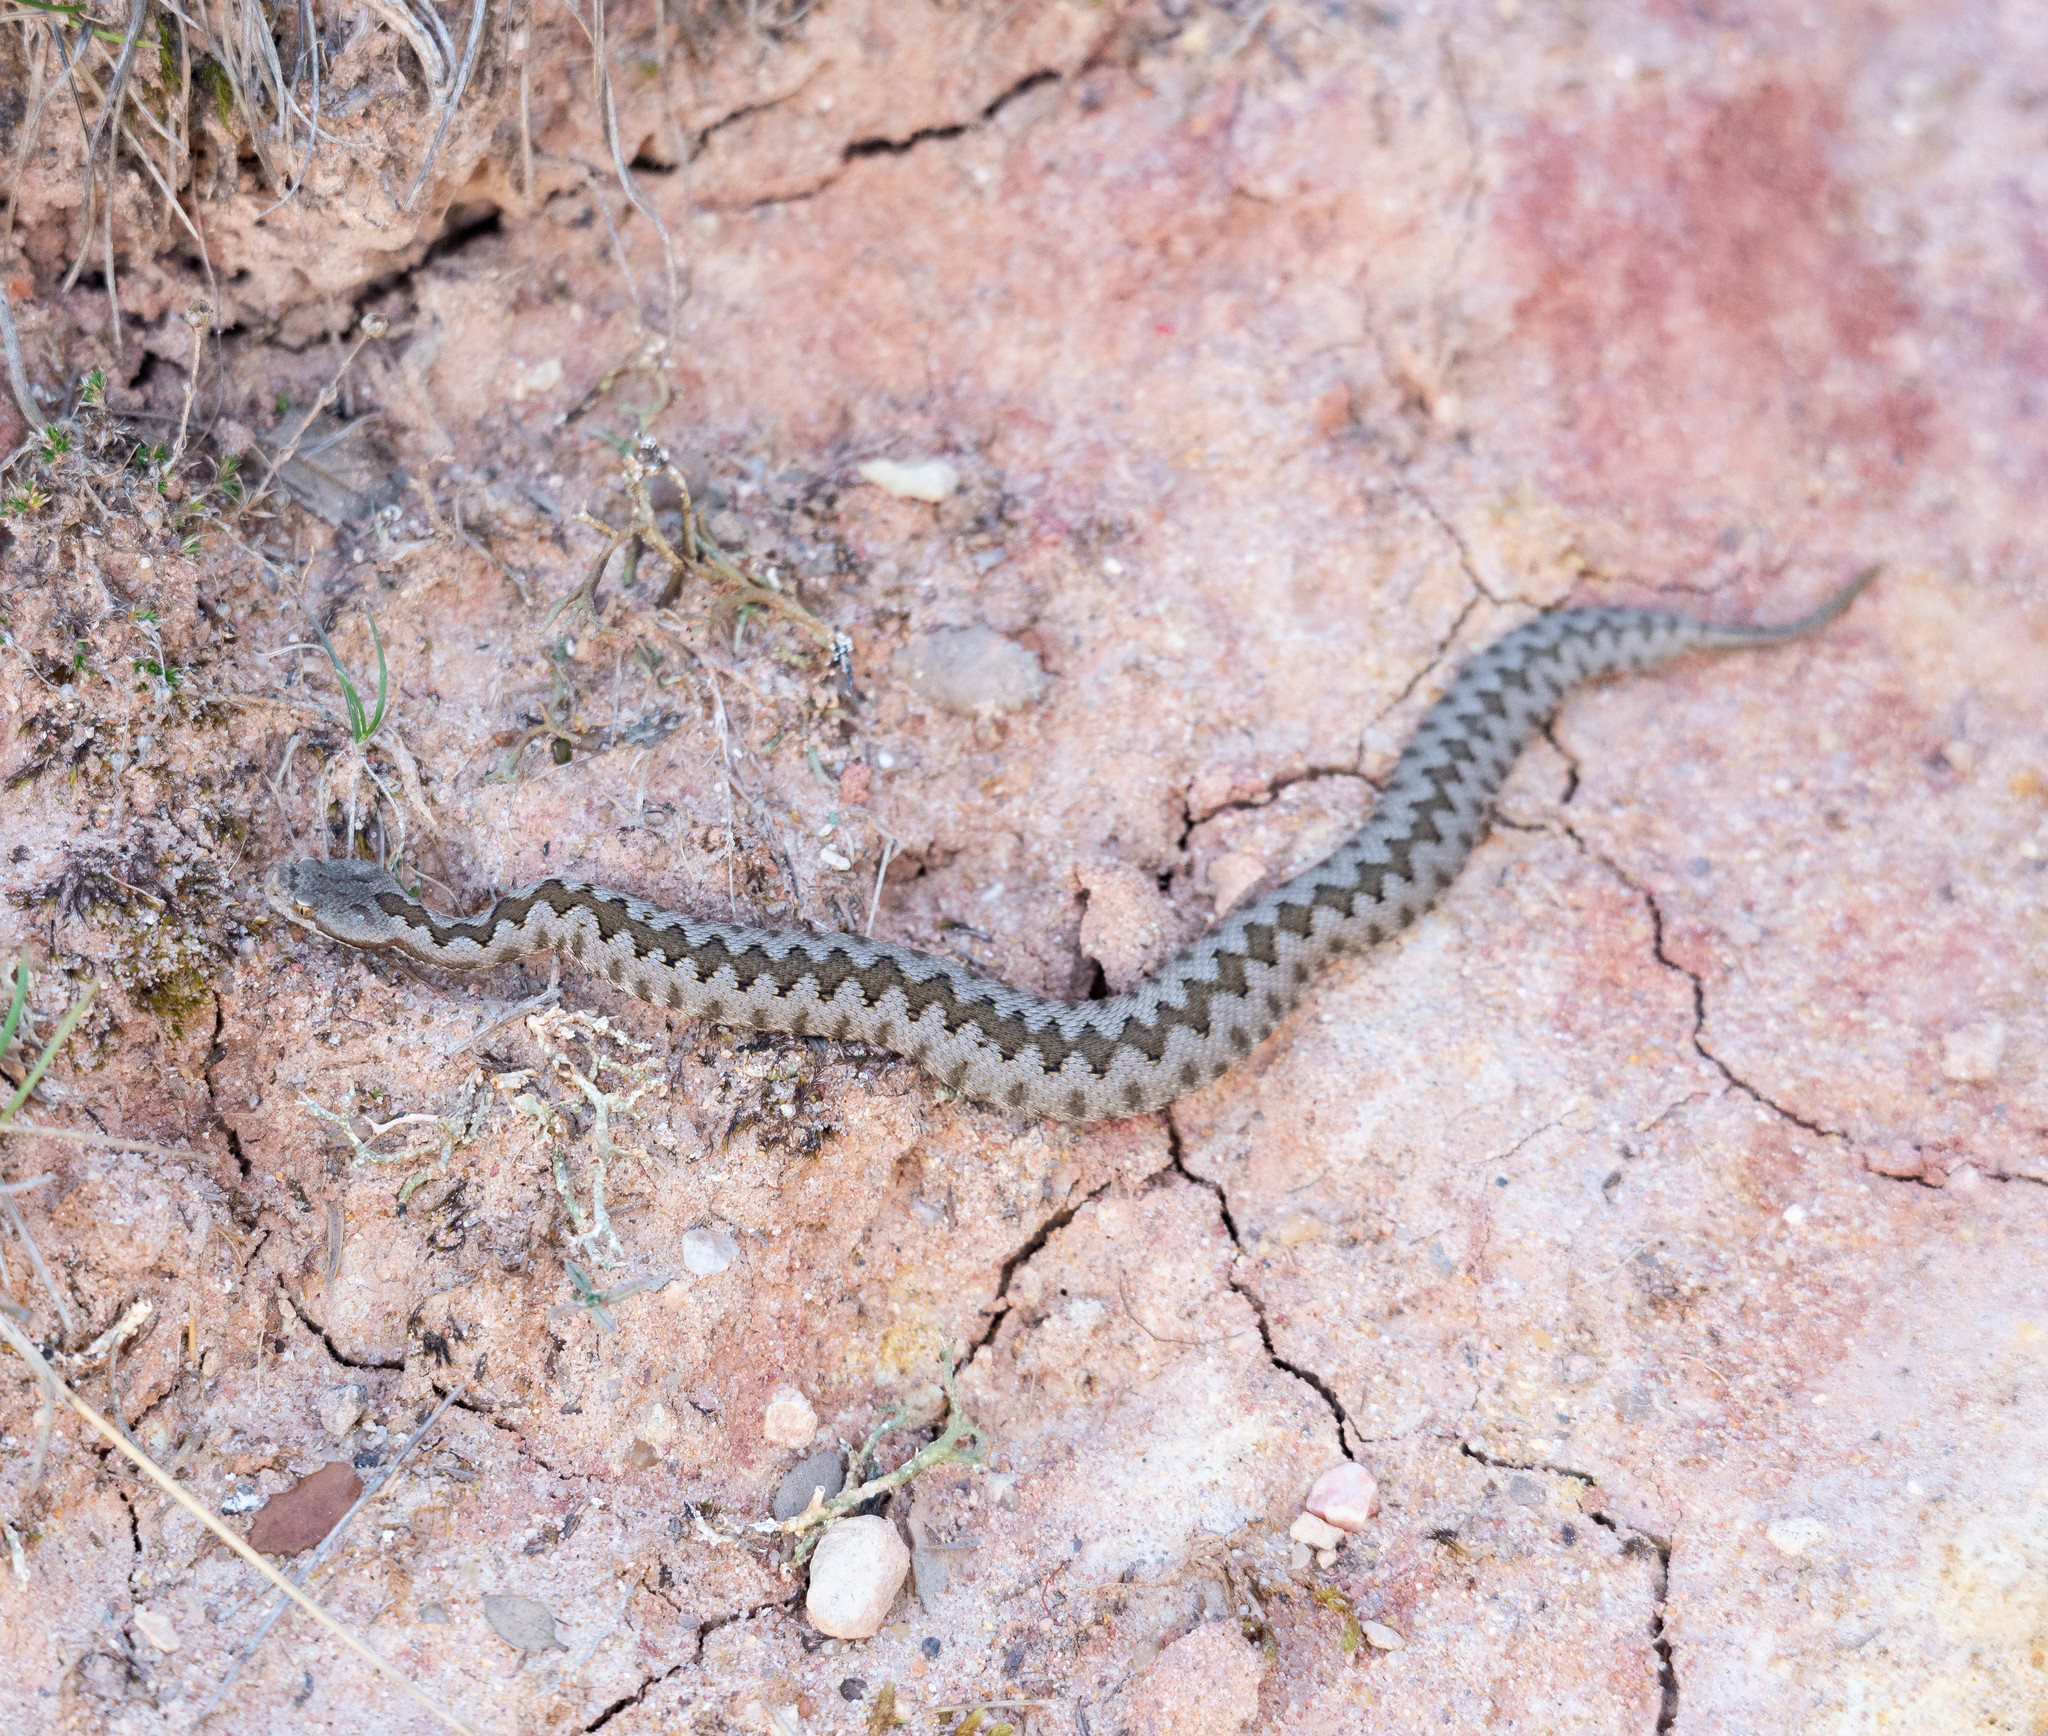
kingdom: Animalia
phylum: Chordata
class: Squamata
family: Viperidae
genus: Vipera
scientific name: Vipera latastei
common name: Lataste's viper
